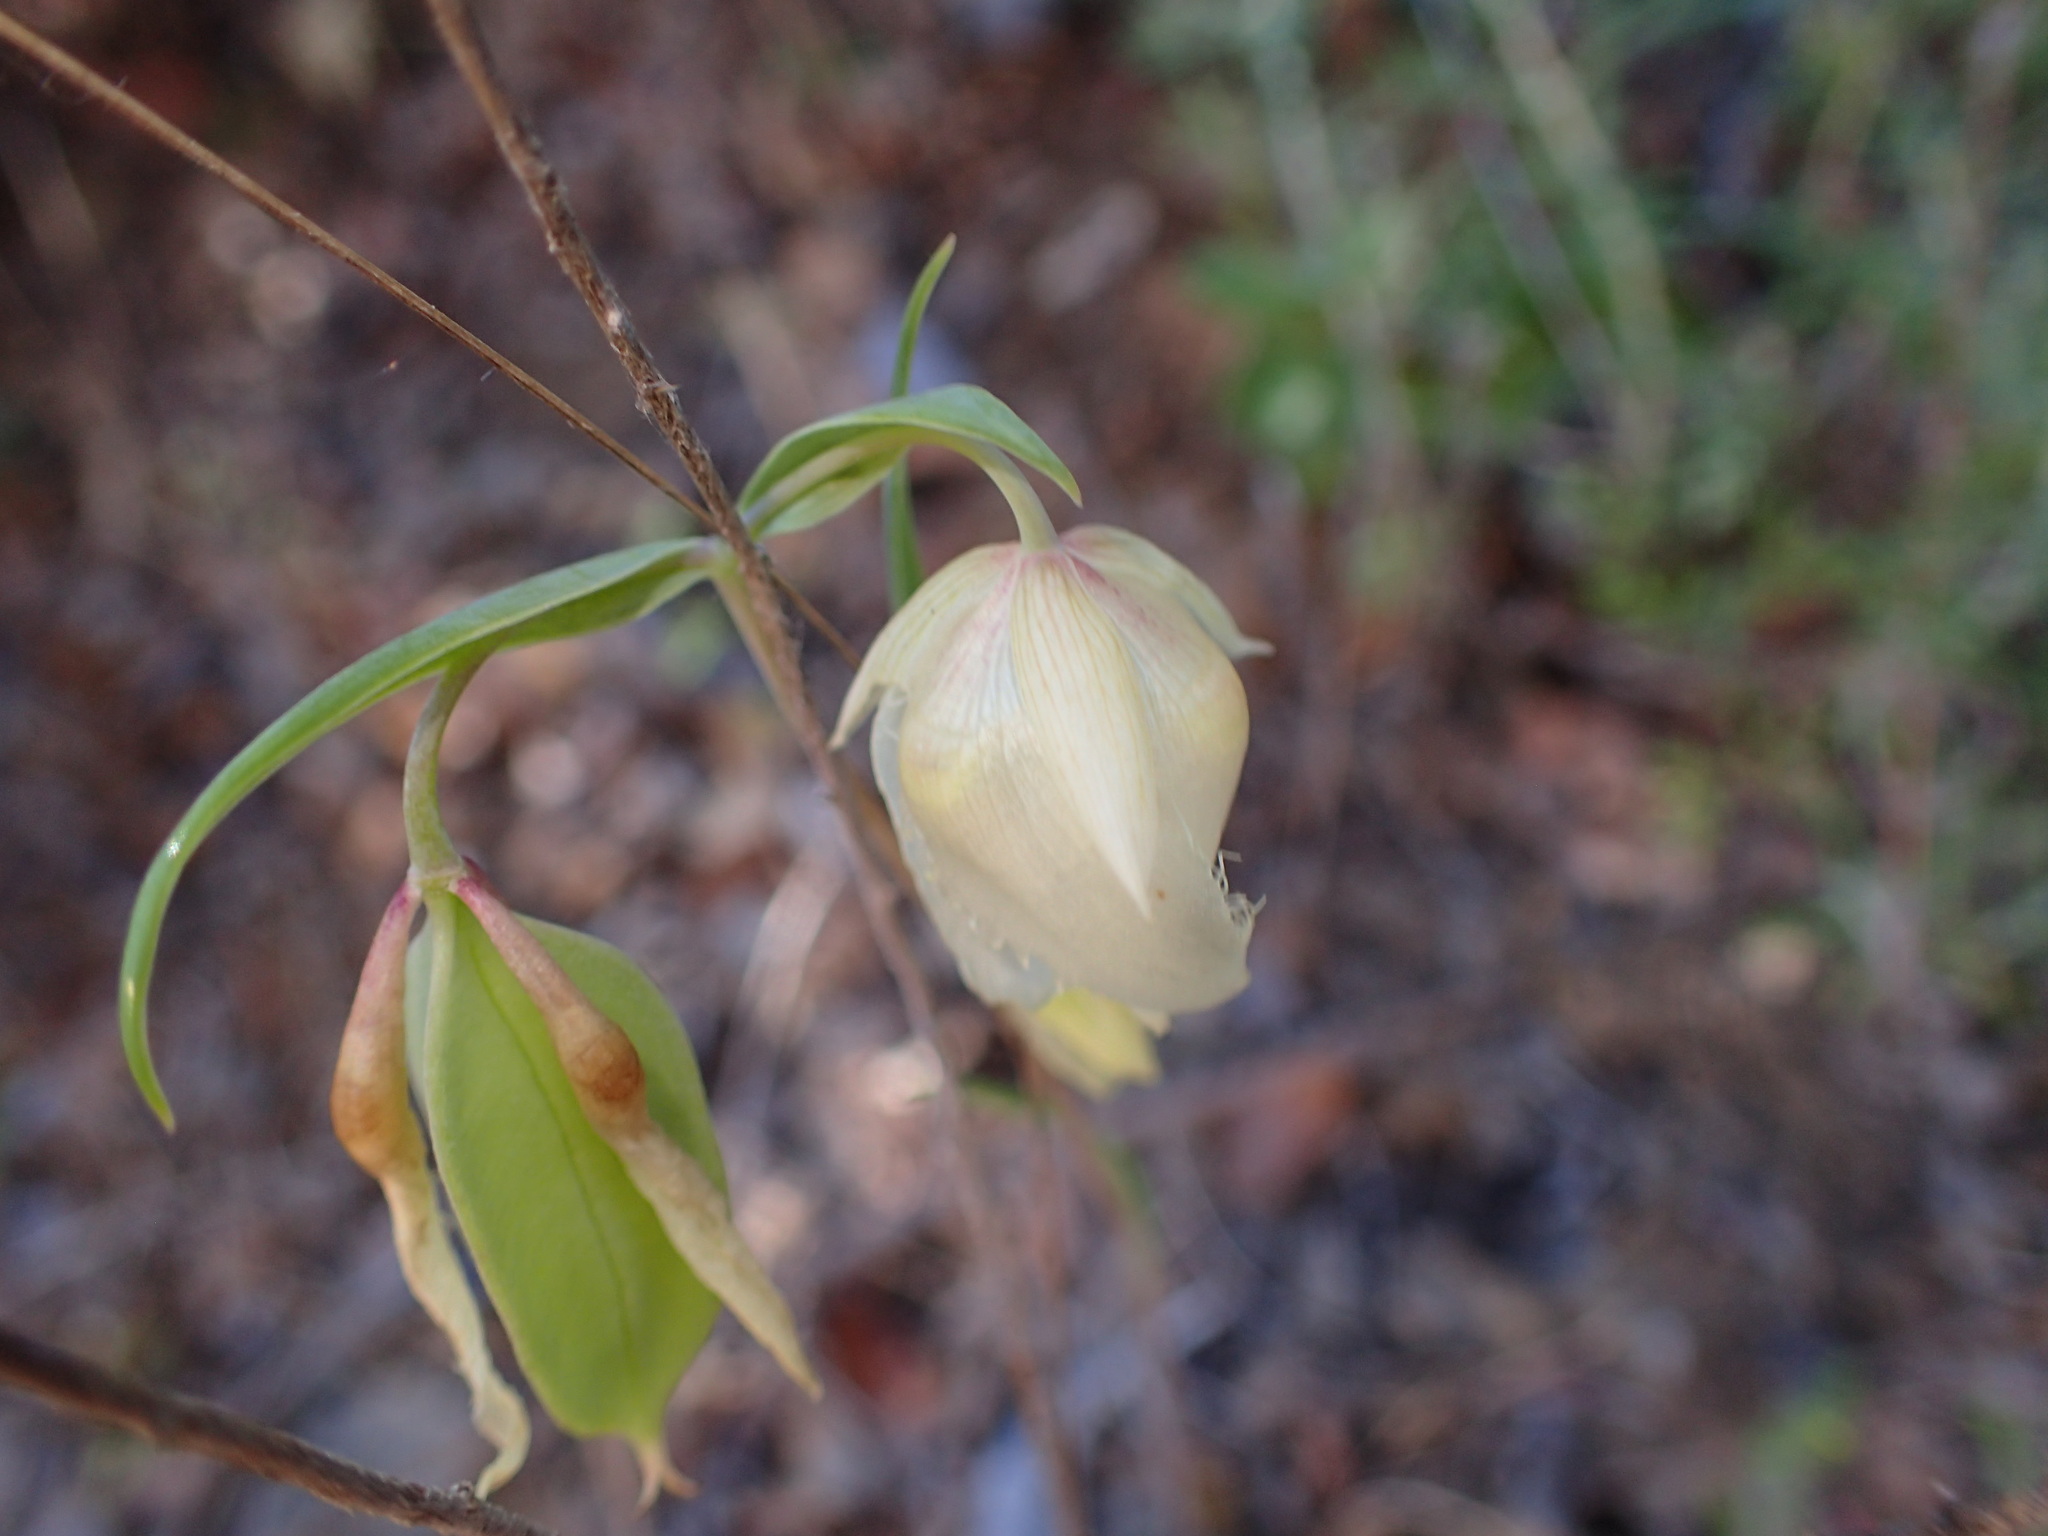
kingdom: Plantae
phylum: Tracheophyta
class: Liliopsida
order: Liliales
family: Liliaceae
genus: Calochortus
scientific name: Calochortus albus
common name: Fairy-lantern
